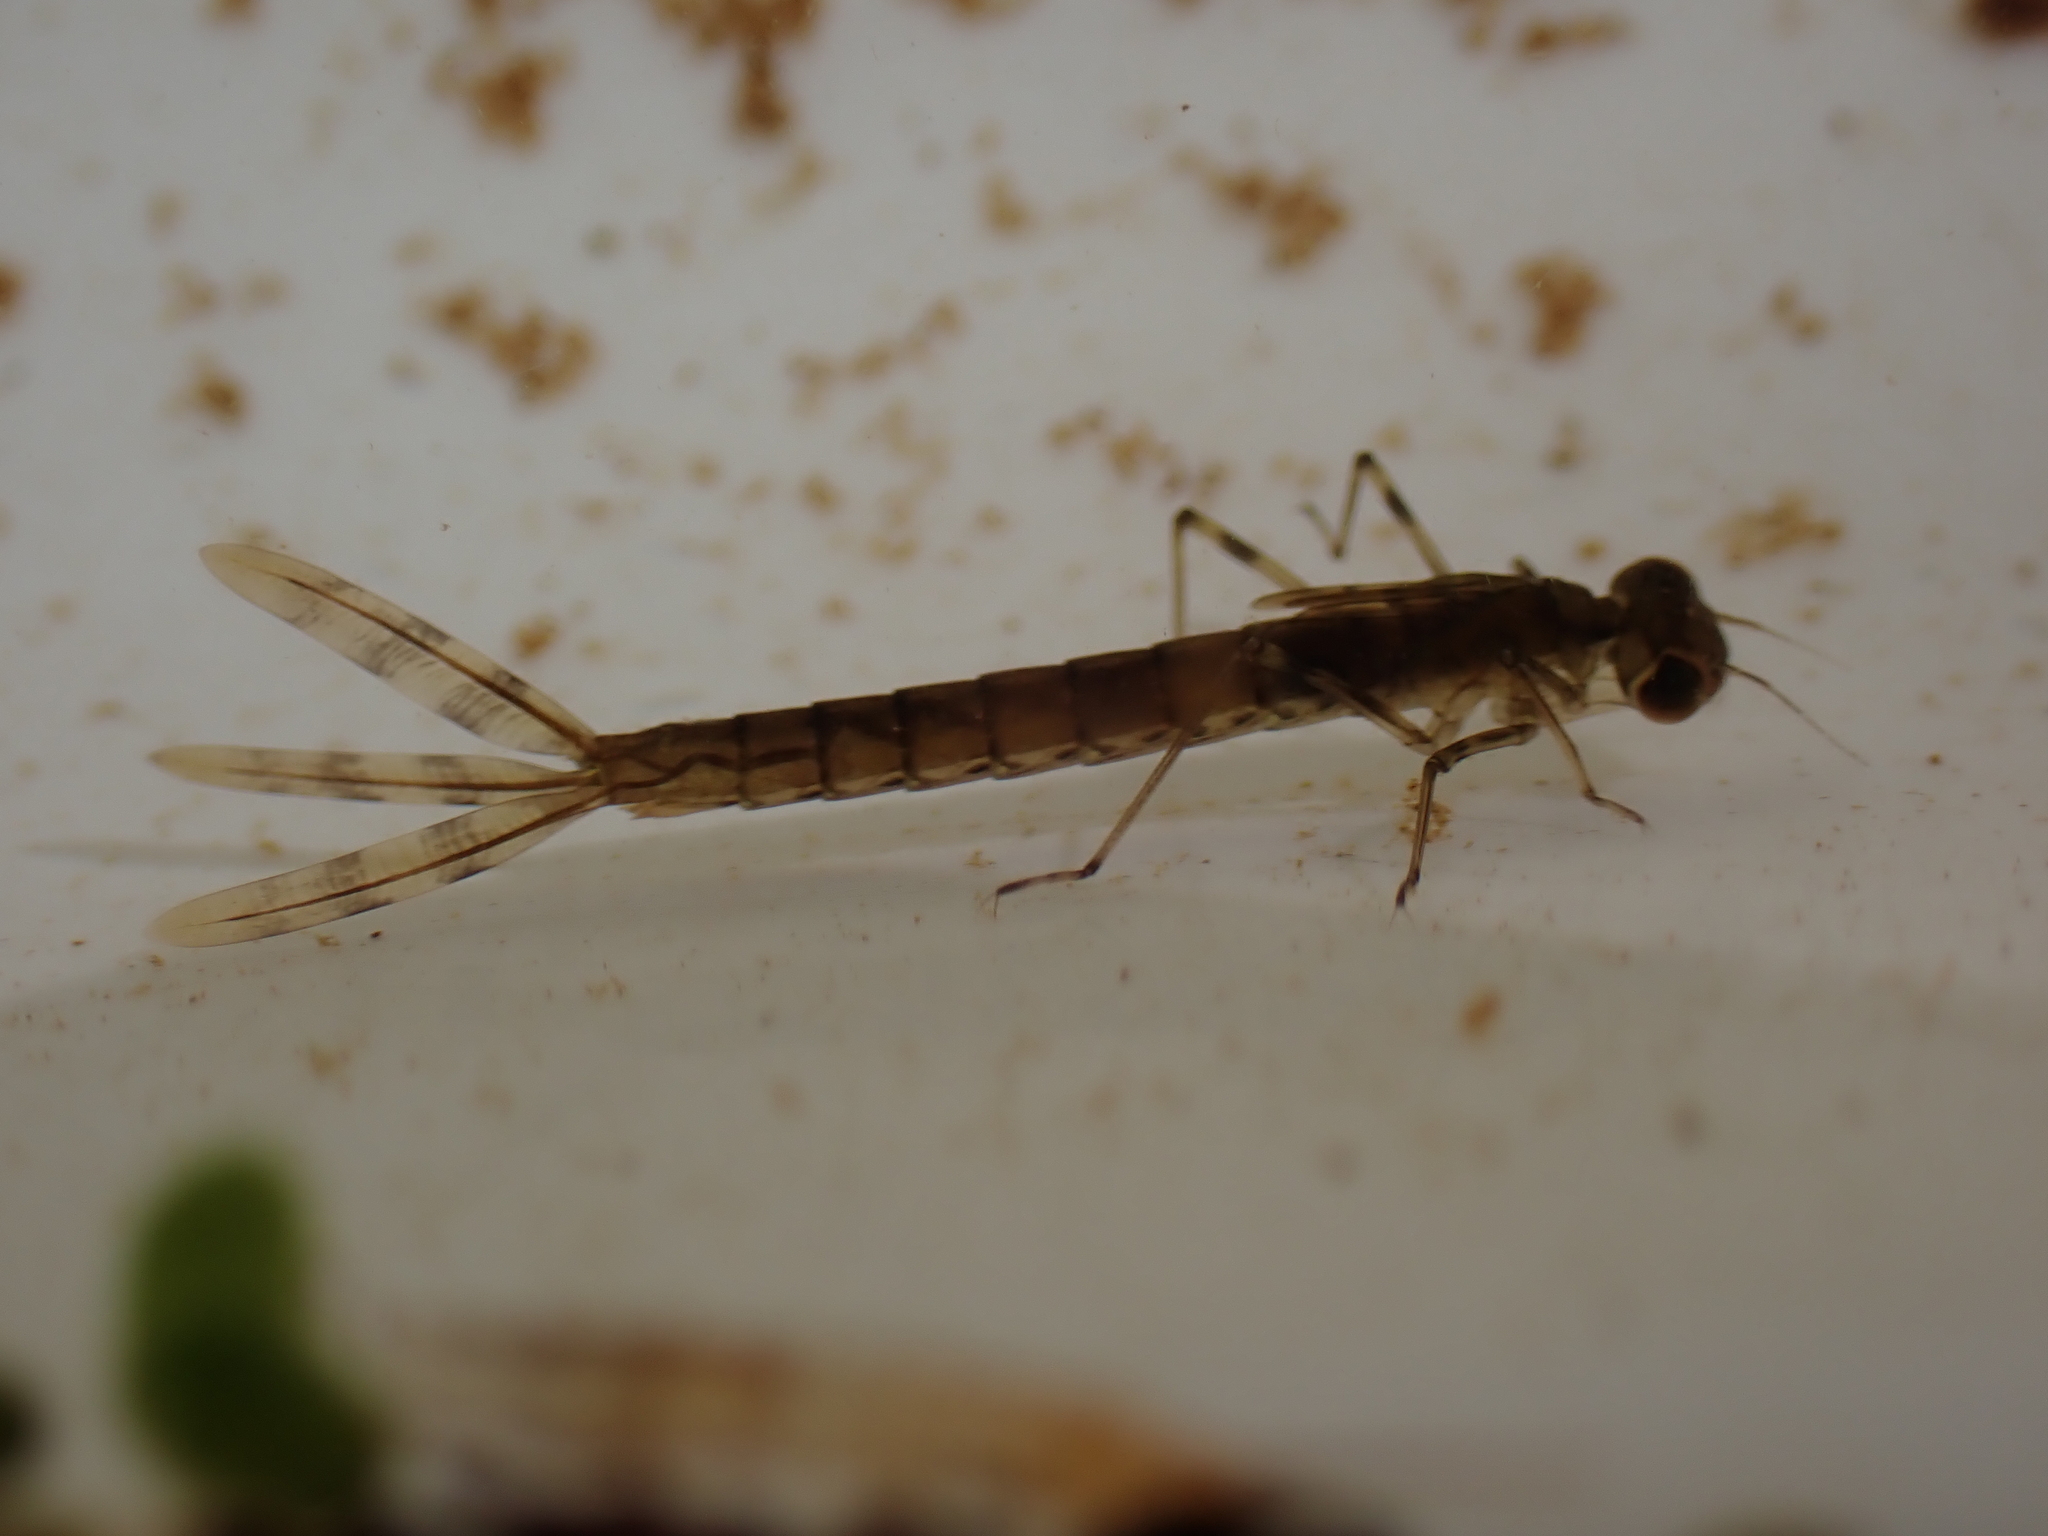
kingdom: Animalia
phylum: Arthropoda
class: Insecta
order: Odonata
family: Lestidae
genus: Austrolestes
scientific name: Austrolestes colensonis
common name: Blue damselfly
